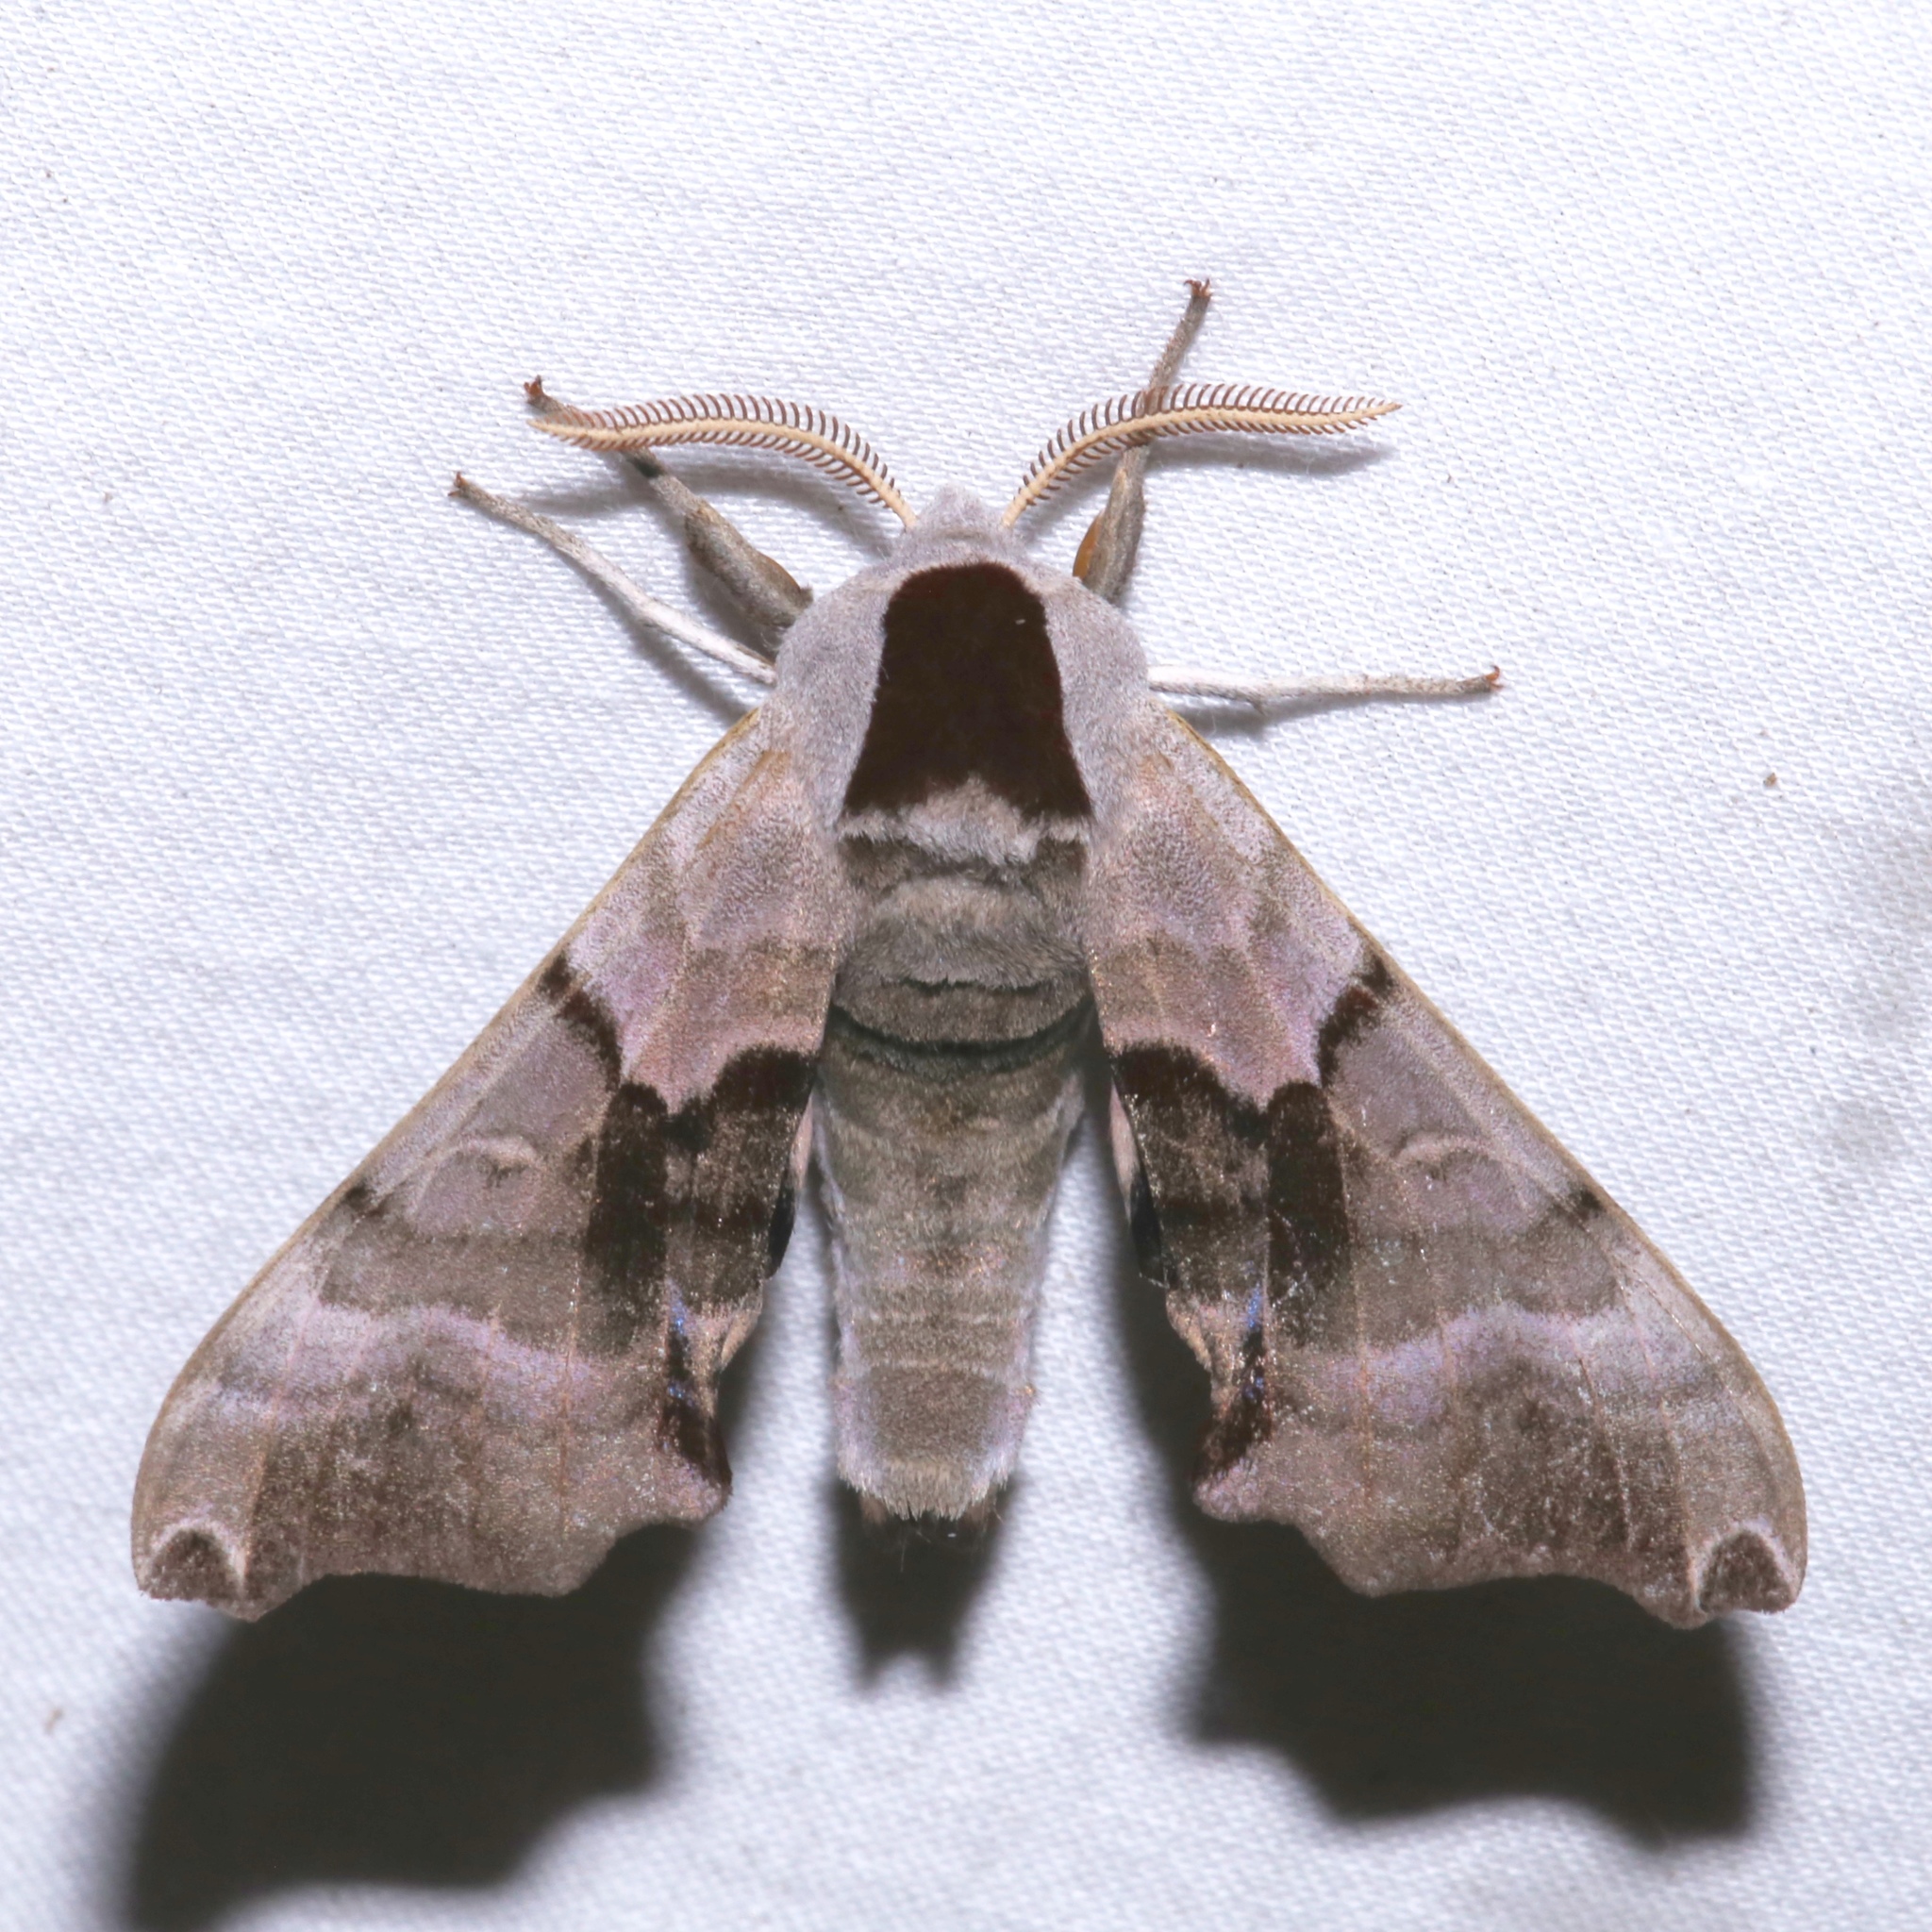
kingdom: Animalia
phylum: Arthropoda
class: Insecta
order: Lepidoptera
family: Sphingidae
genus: Smerinthus
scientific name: Smerinthus jamaicensis
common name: Twin spotted sphinx
